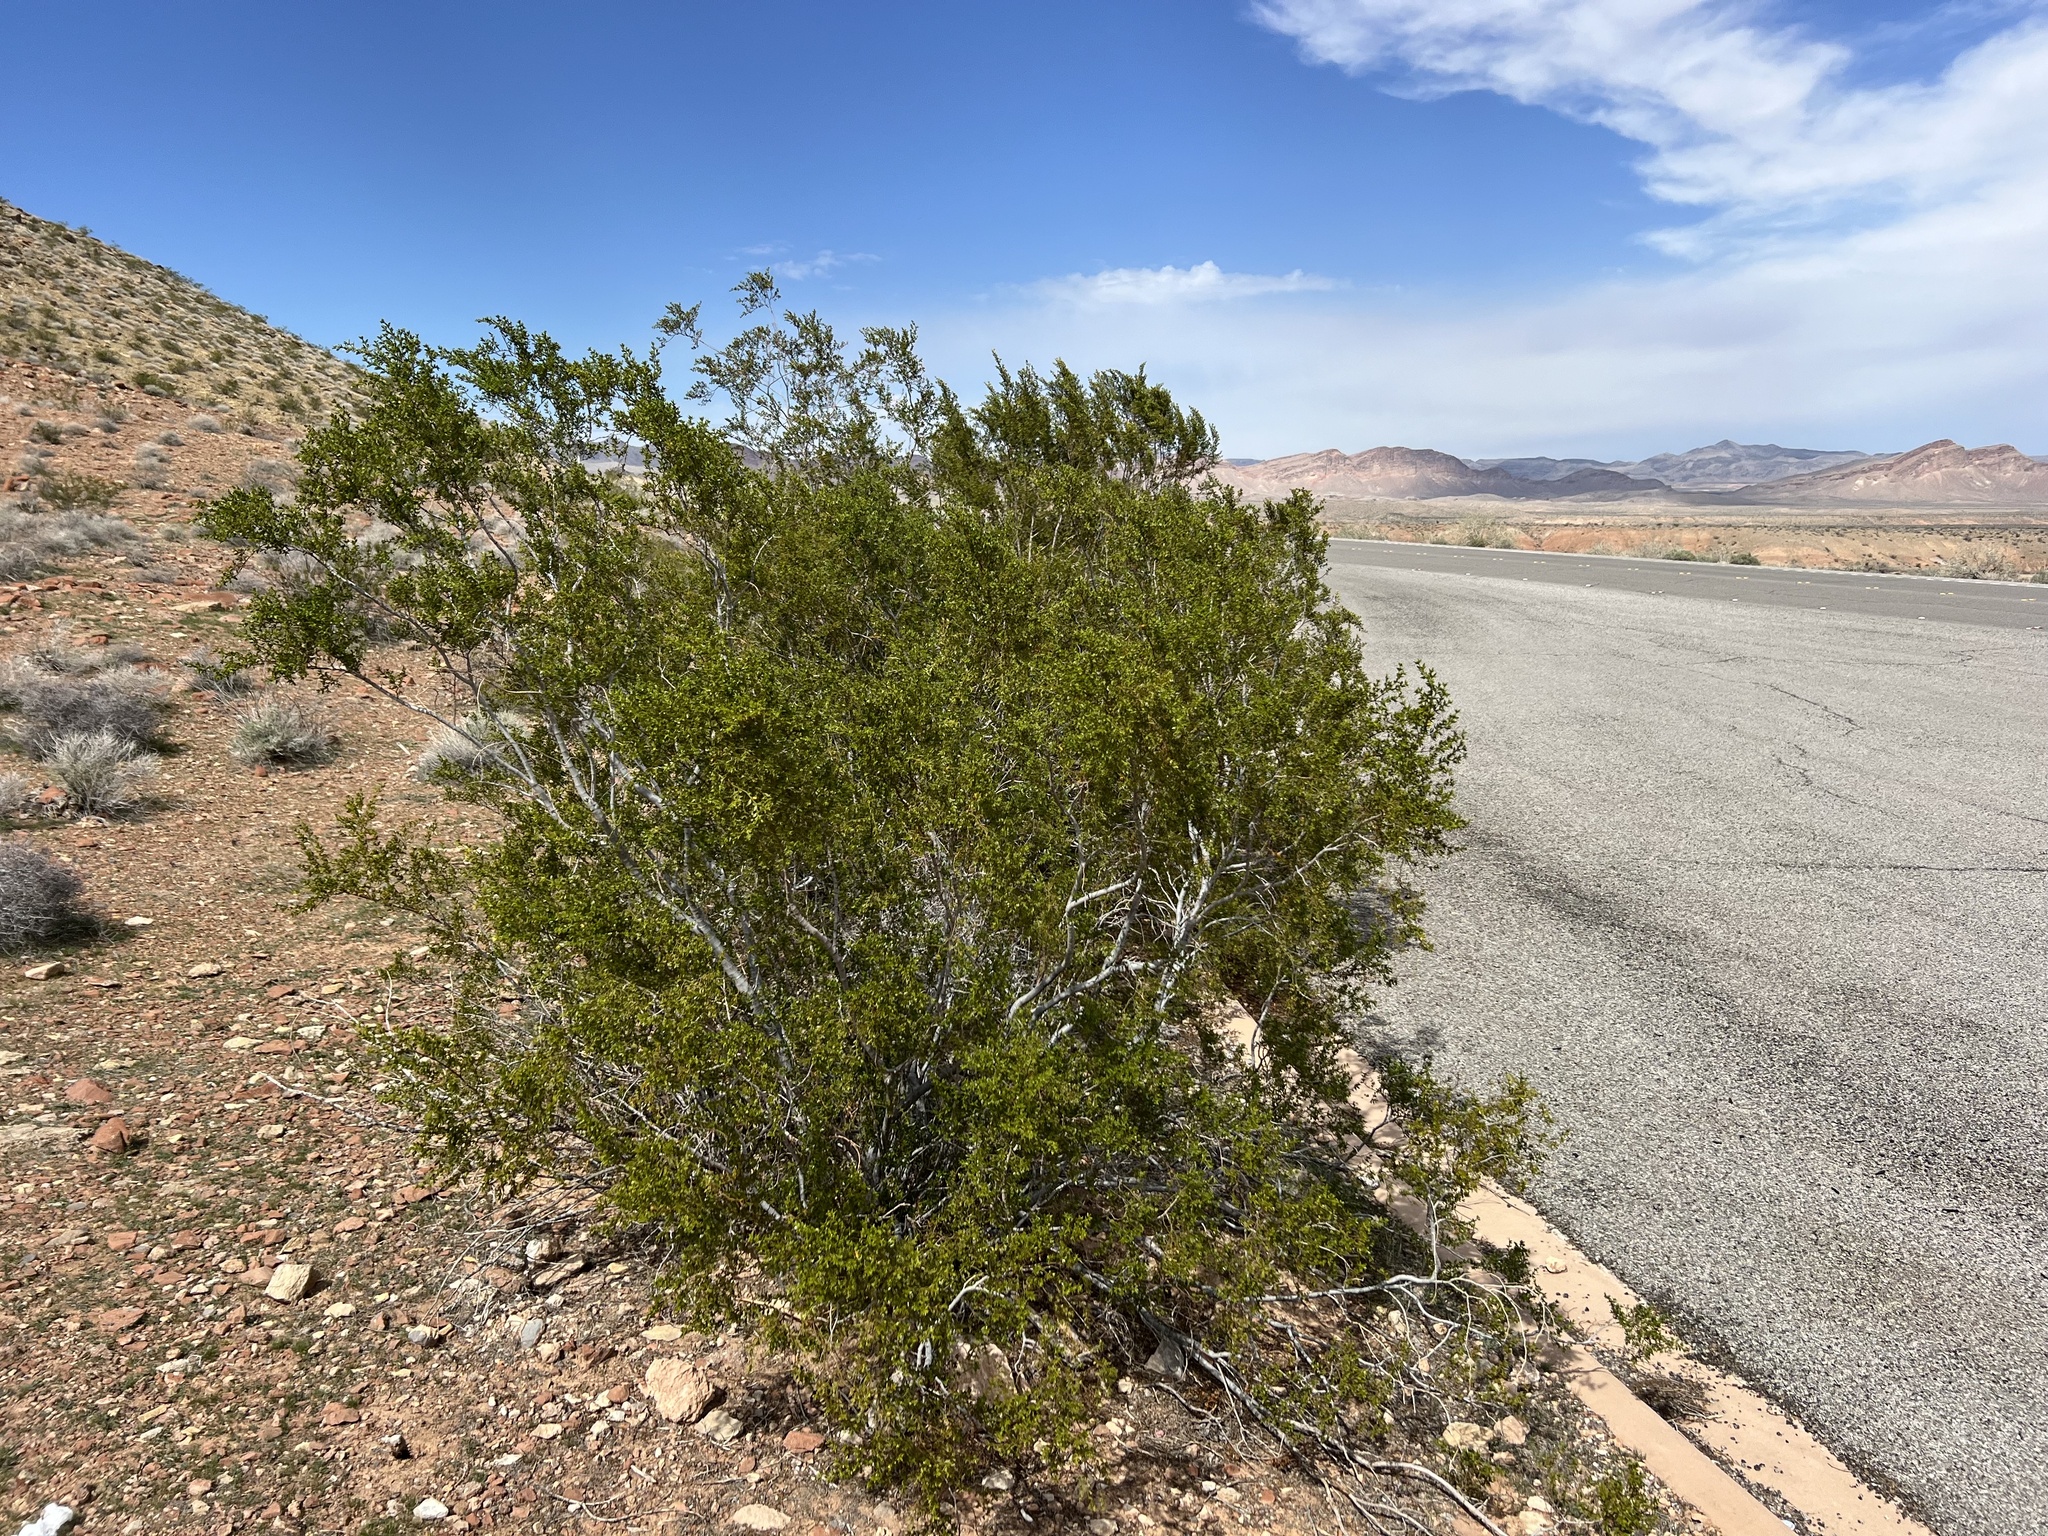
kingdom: Plantae
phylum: Tracheophyta
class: Magnoliopsida
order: Zygophyllales
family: Zygophyllaceae
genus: Larrea
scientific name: Larrea tridentata
